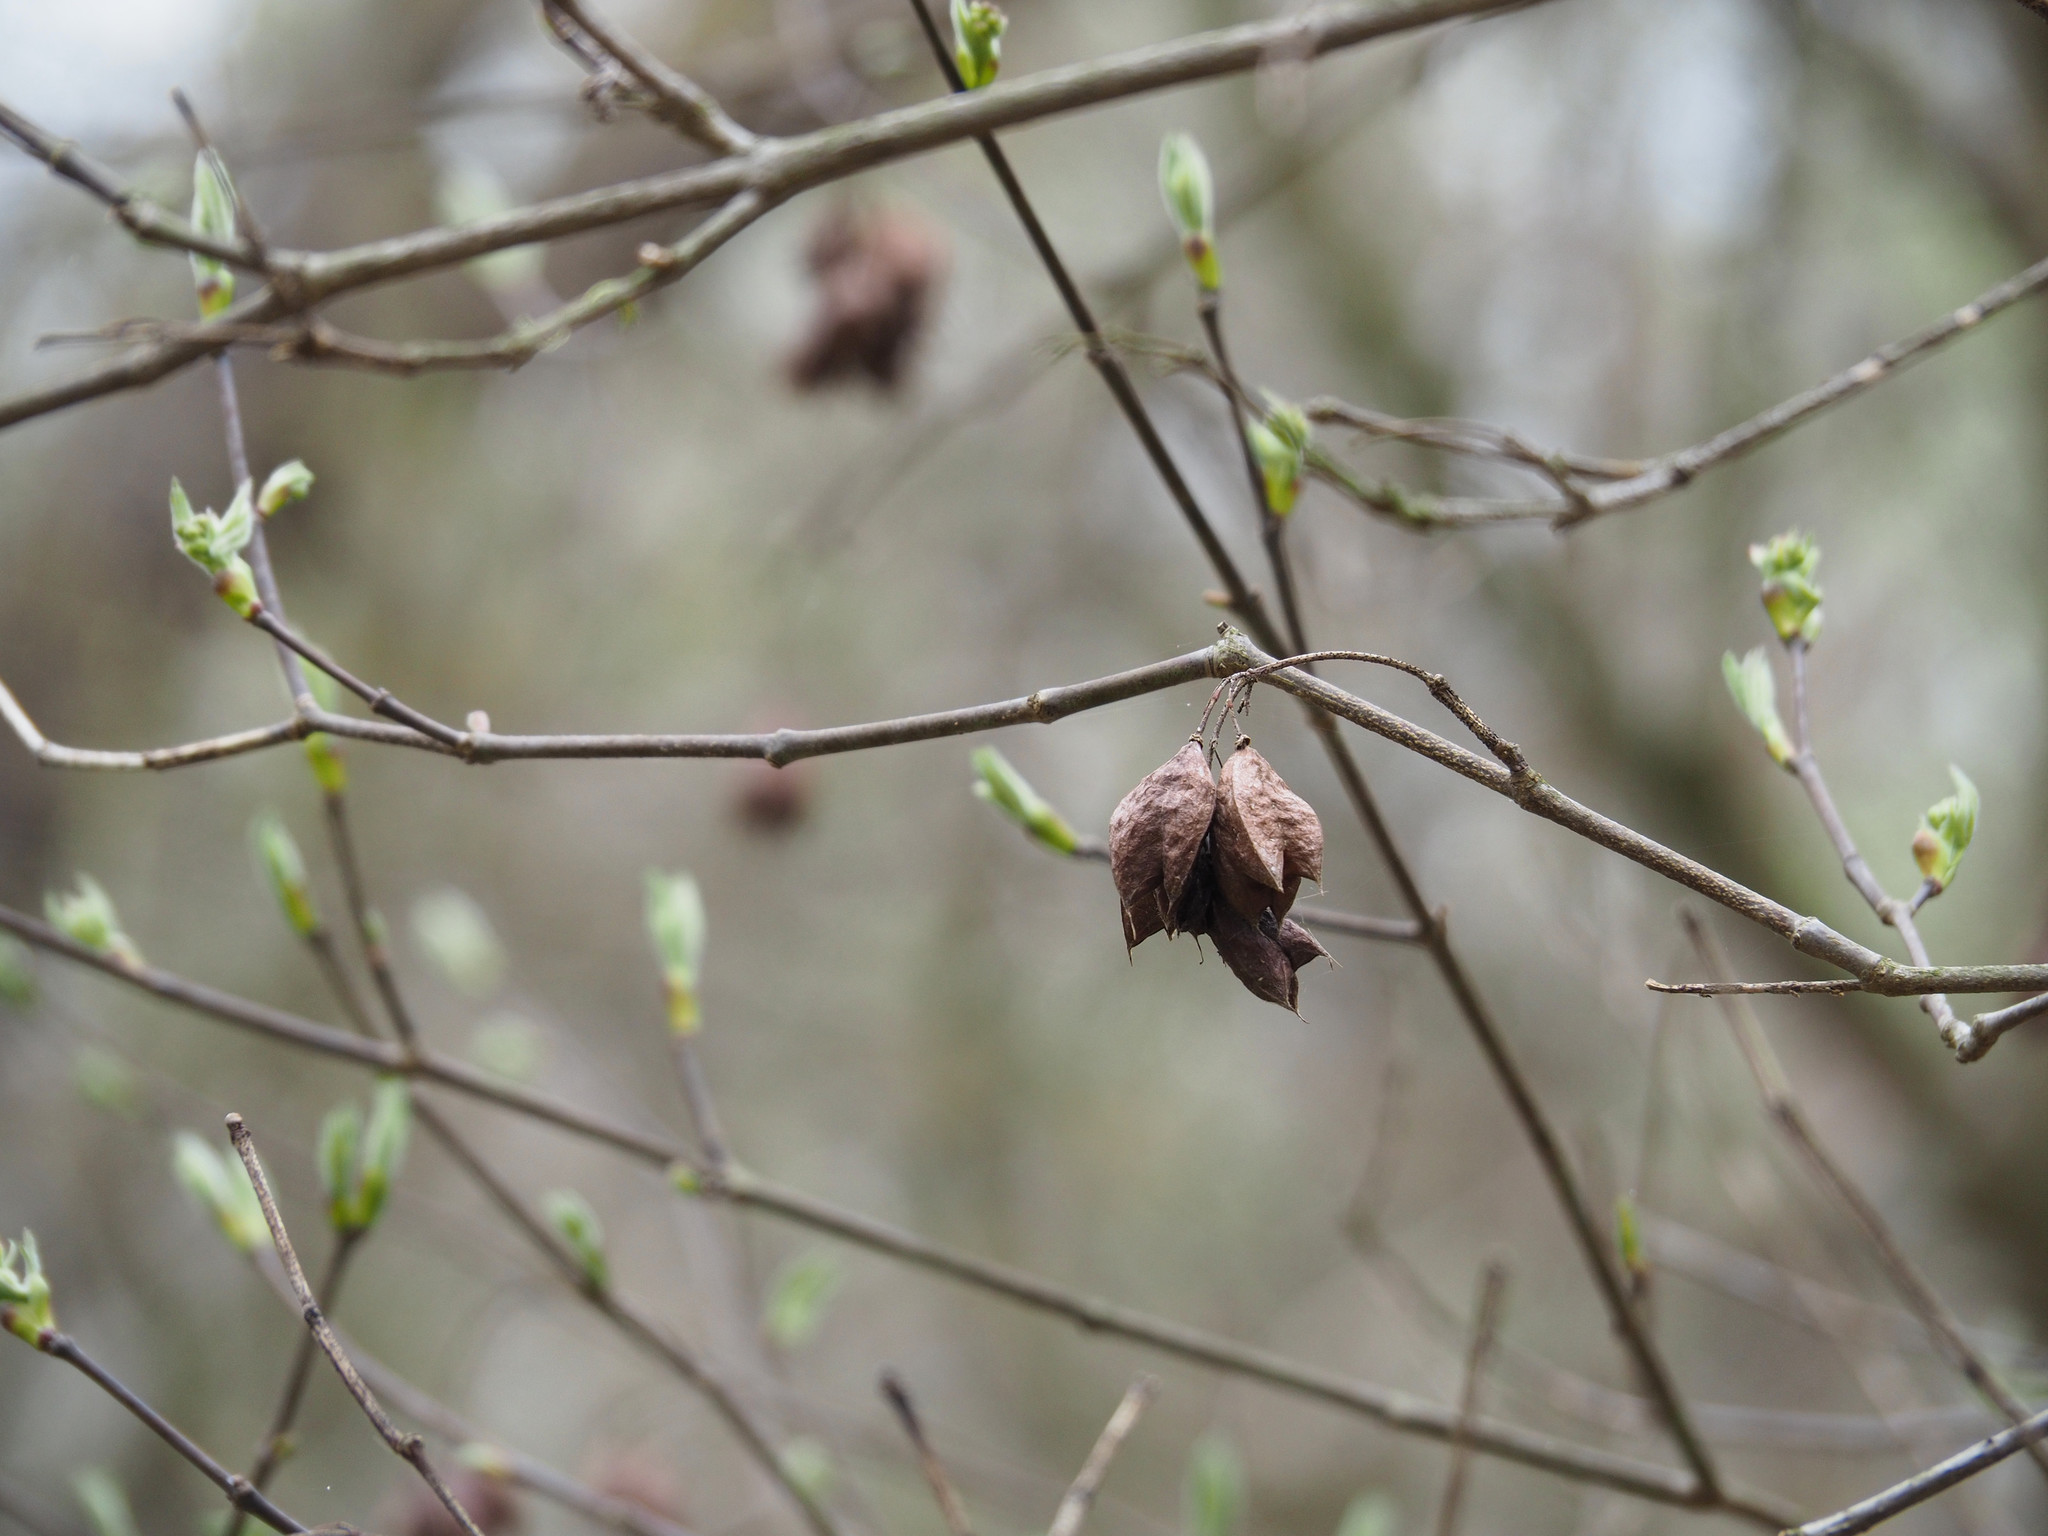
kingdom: Plantae
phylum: Tracheophyta
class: Magnoliopsida
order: Crossosomatales
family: Staphyleaceae
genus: Staphylea
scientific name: Staphylea trifolia
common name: American bladdernut
